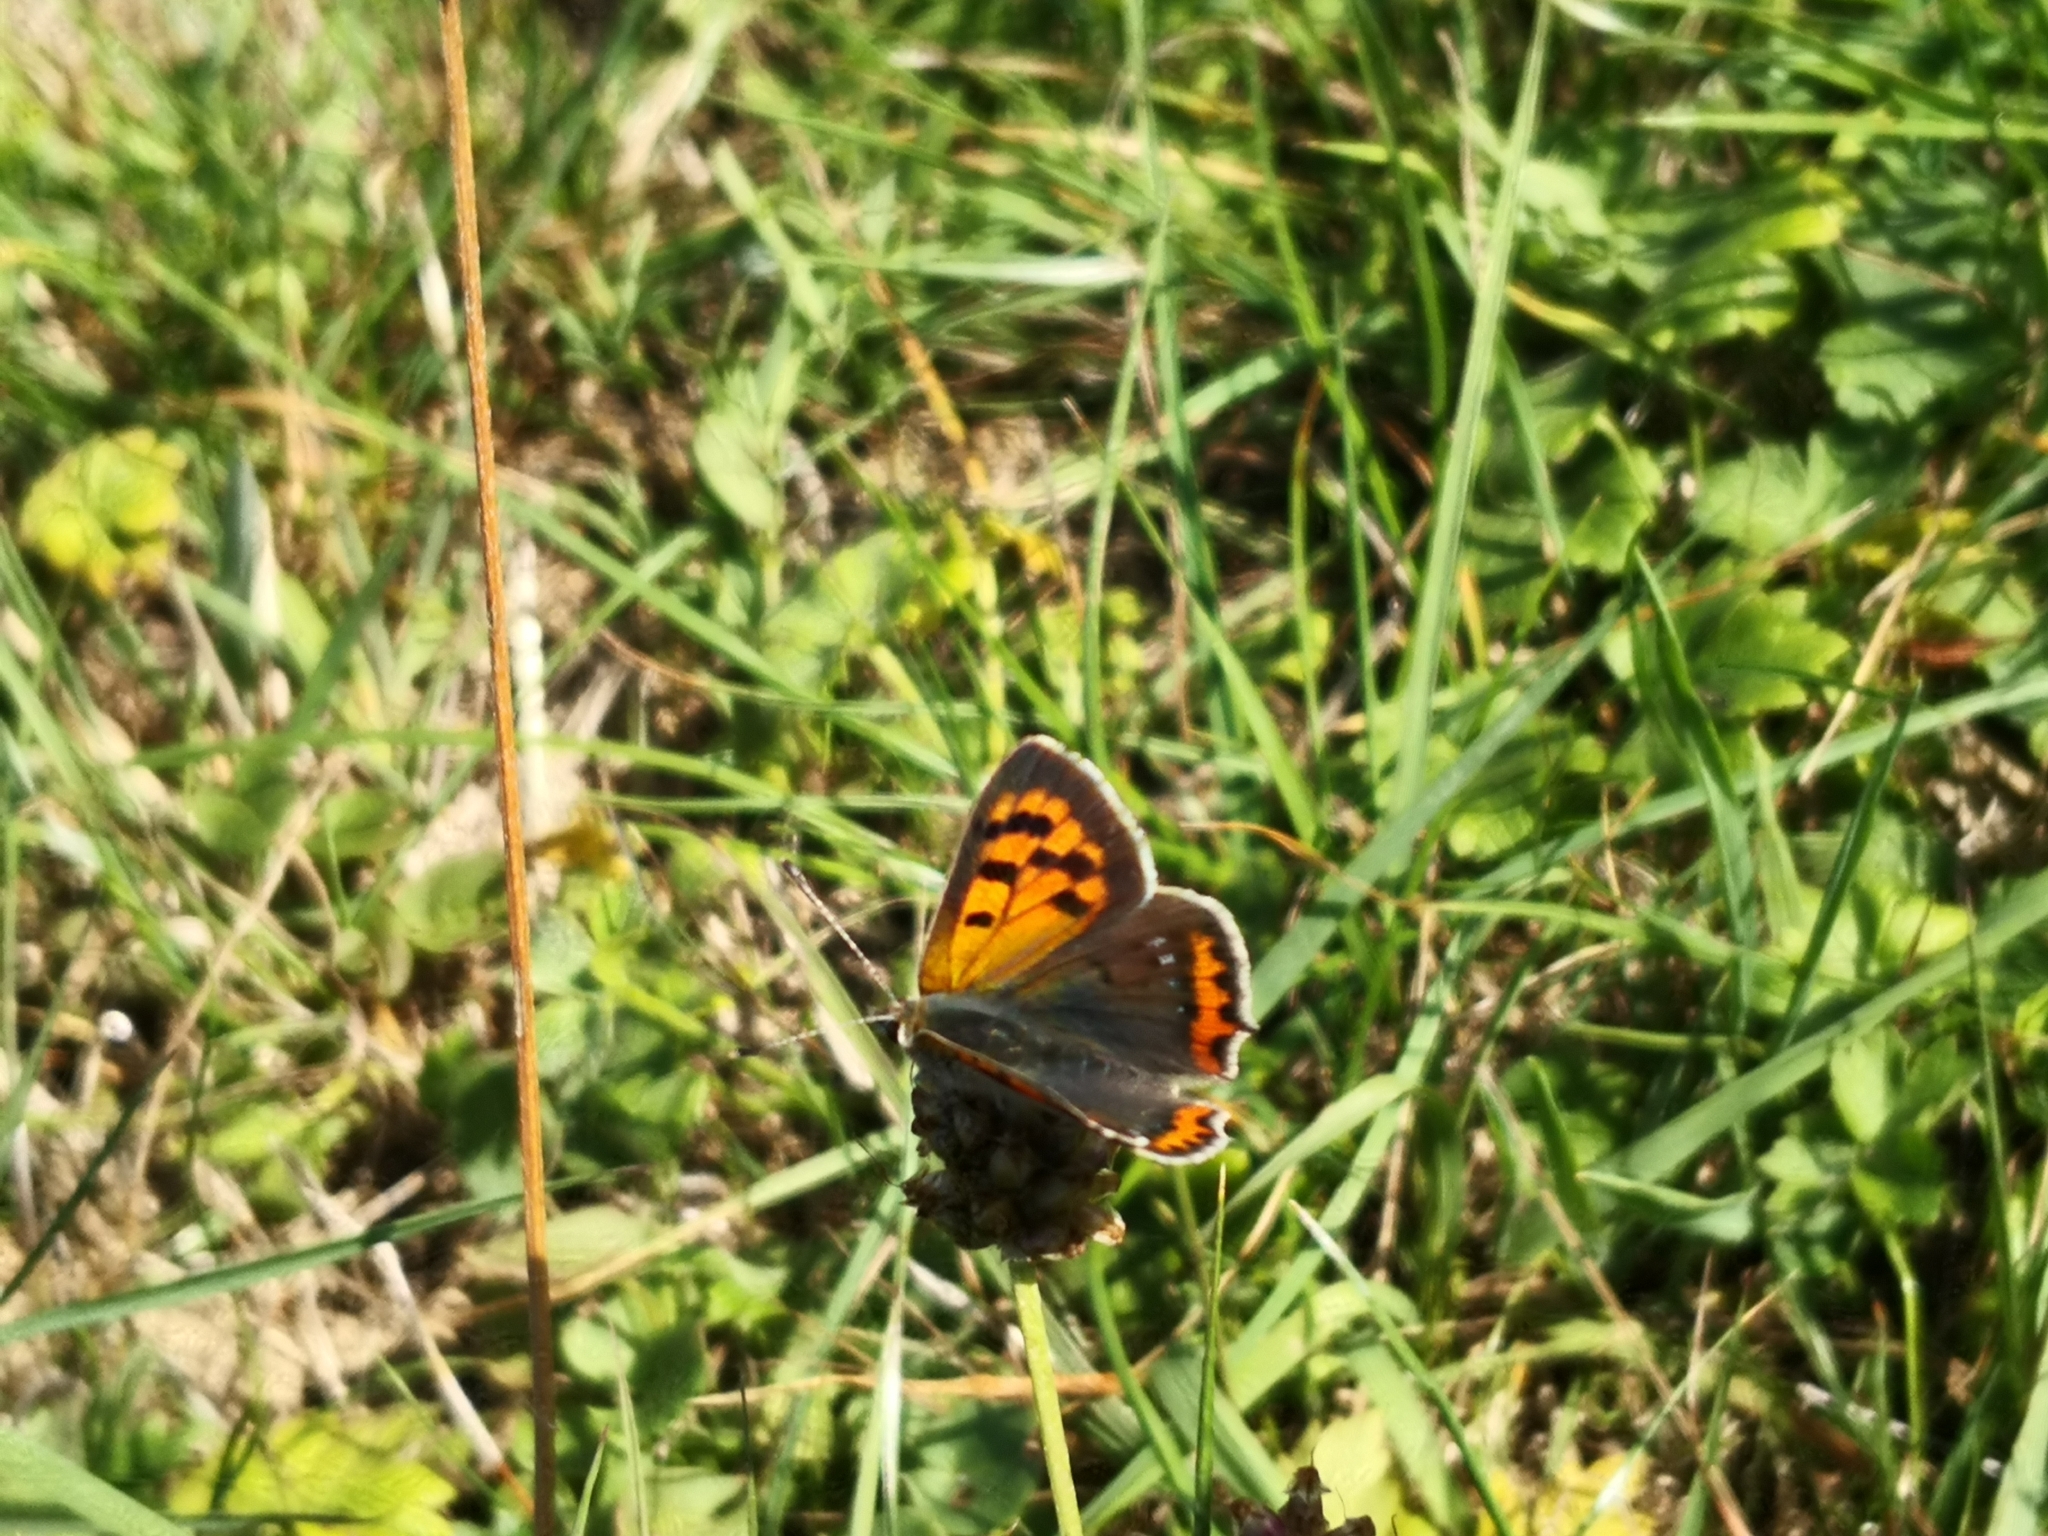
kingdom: Animalia
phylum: Arthropoda
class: Insecta
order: Lepidoptera
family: Lycaenidae
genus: Lycaena
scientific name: Lycaena phlaeas
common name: Small copper
